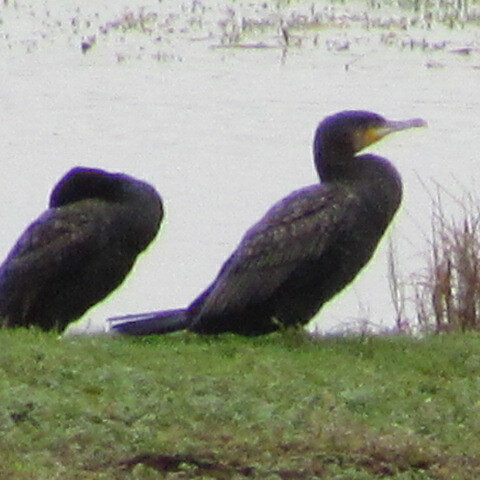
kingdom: Animalia
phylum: Chordata
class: Aves
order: Suliformes
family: Phalacrocoracidae
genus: Phalacrocorax
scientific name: Phalacrocorax carbo
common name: Great cormorant
